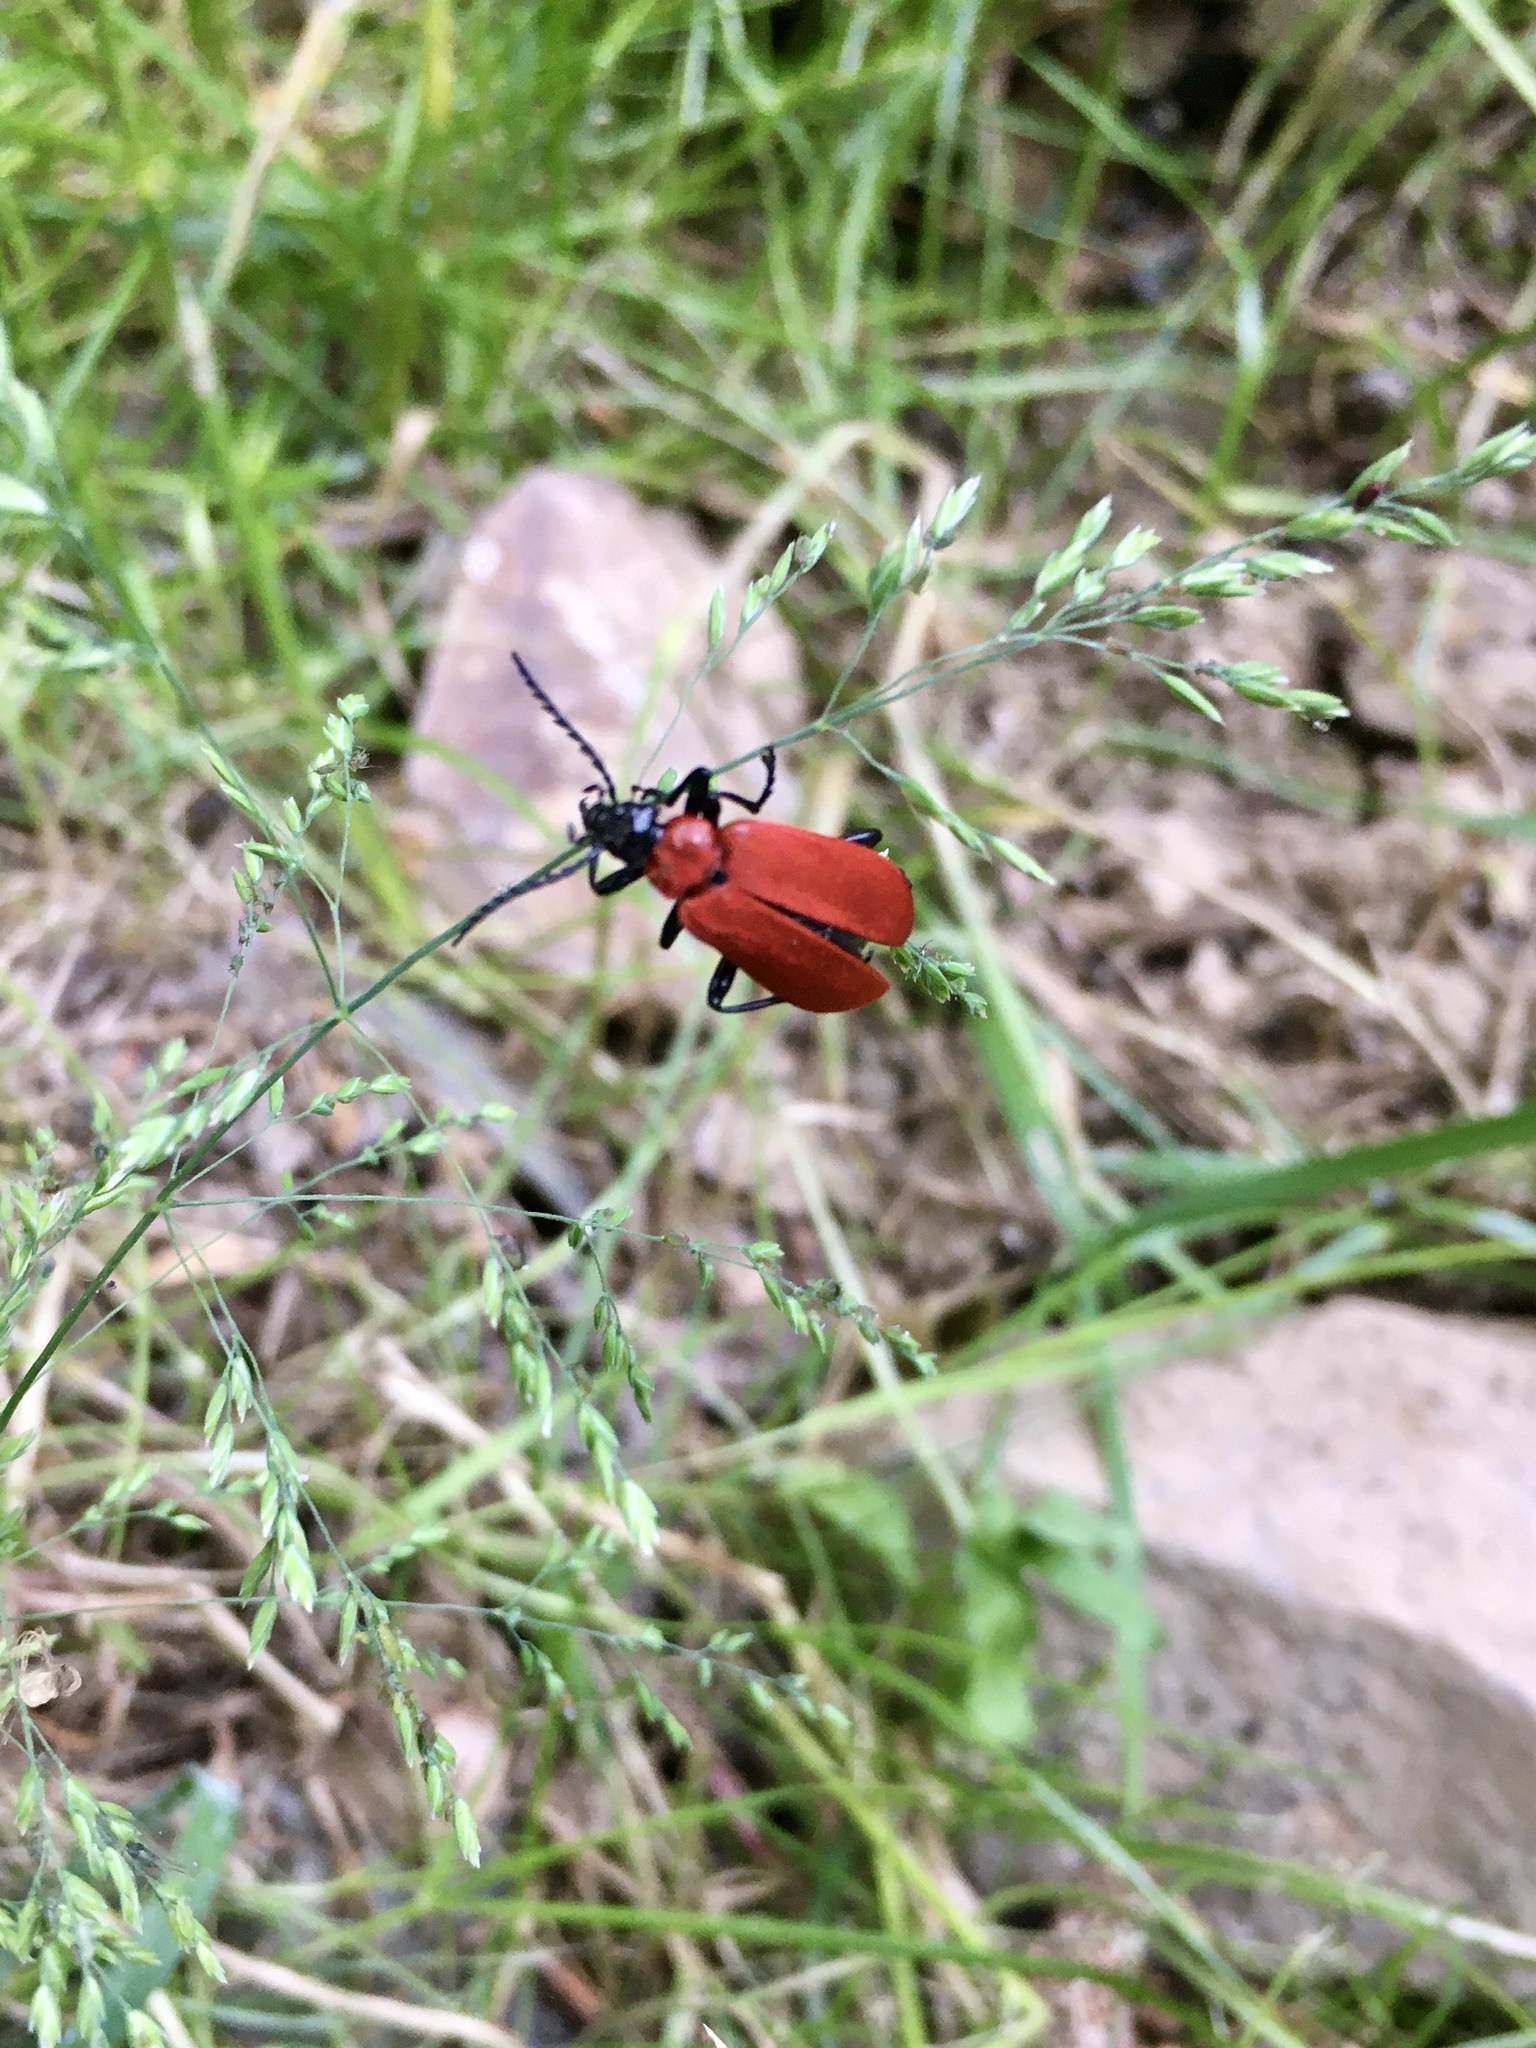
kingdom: Animalia
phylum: Arthropoda
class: Insecta
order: Coleoptera
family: Pyrochroidae
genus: Pyrochroa
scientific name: Pyrochroa coccinea
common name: Black-headed cardinal beetle
